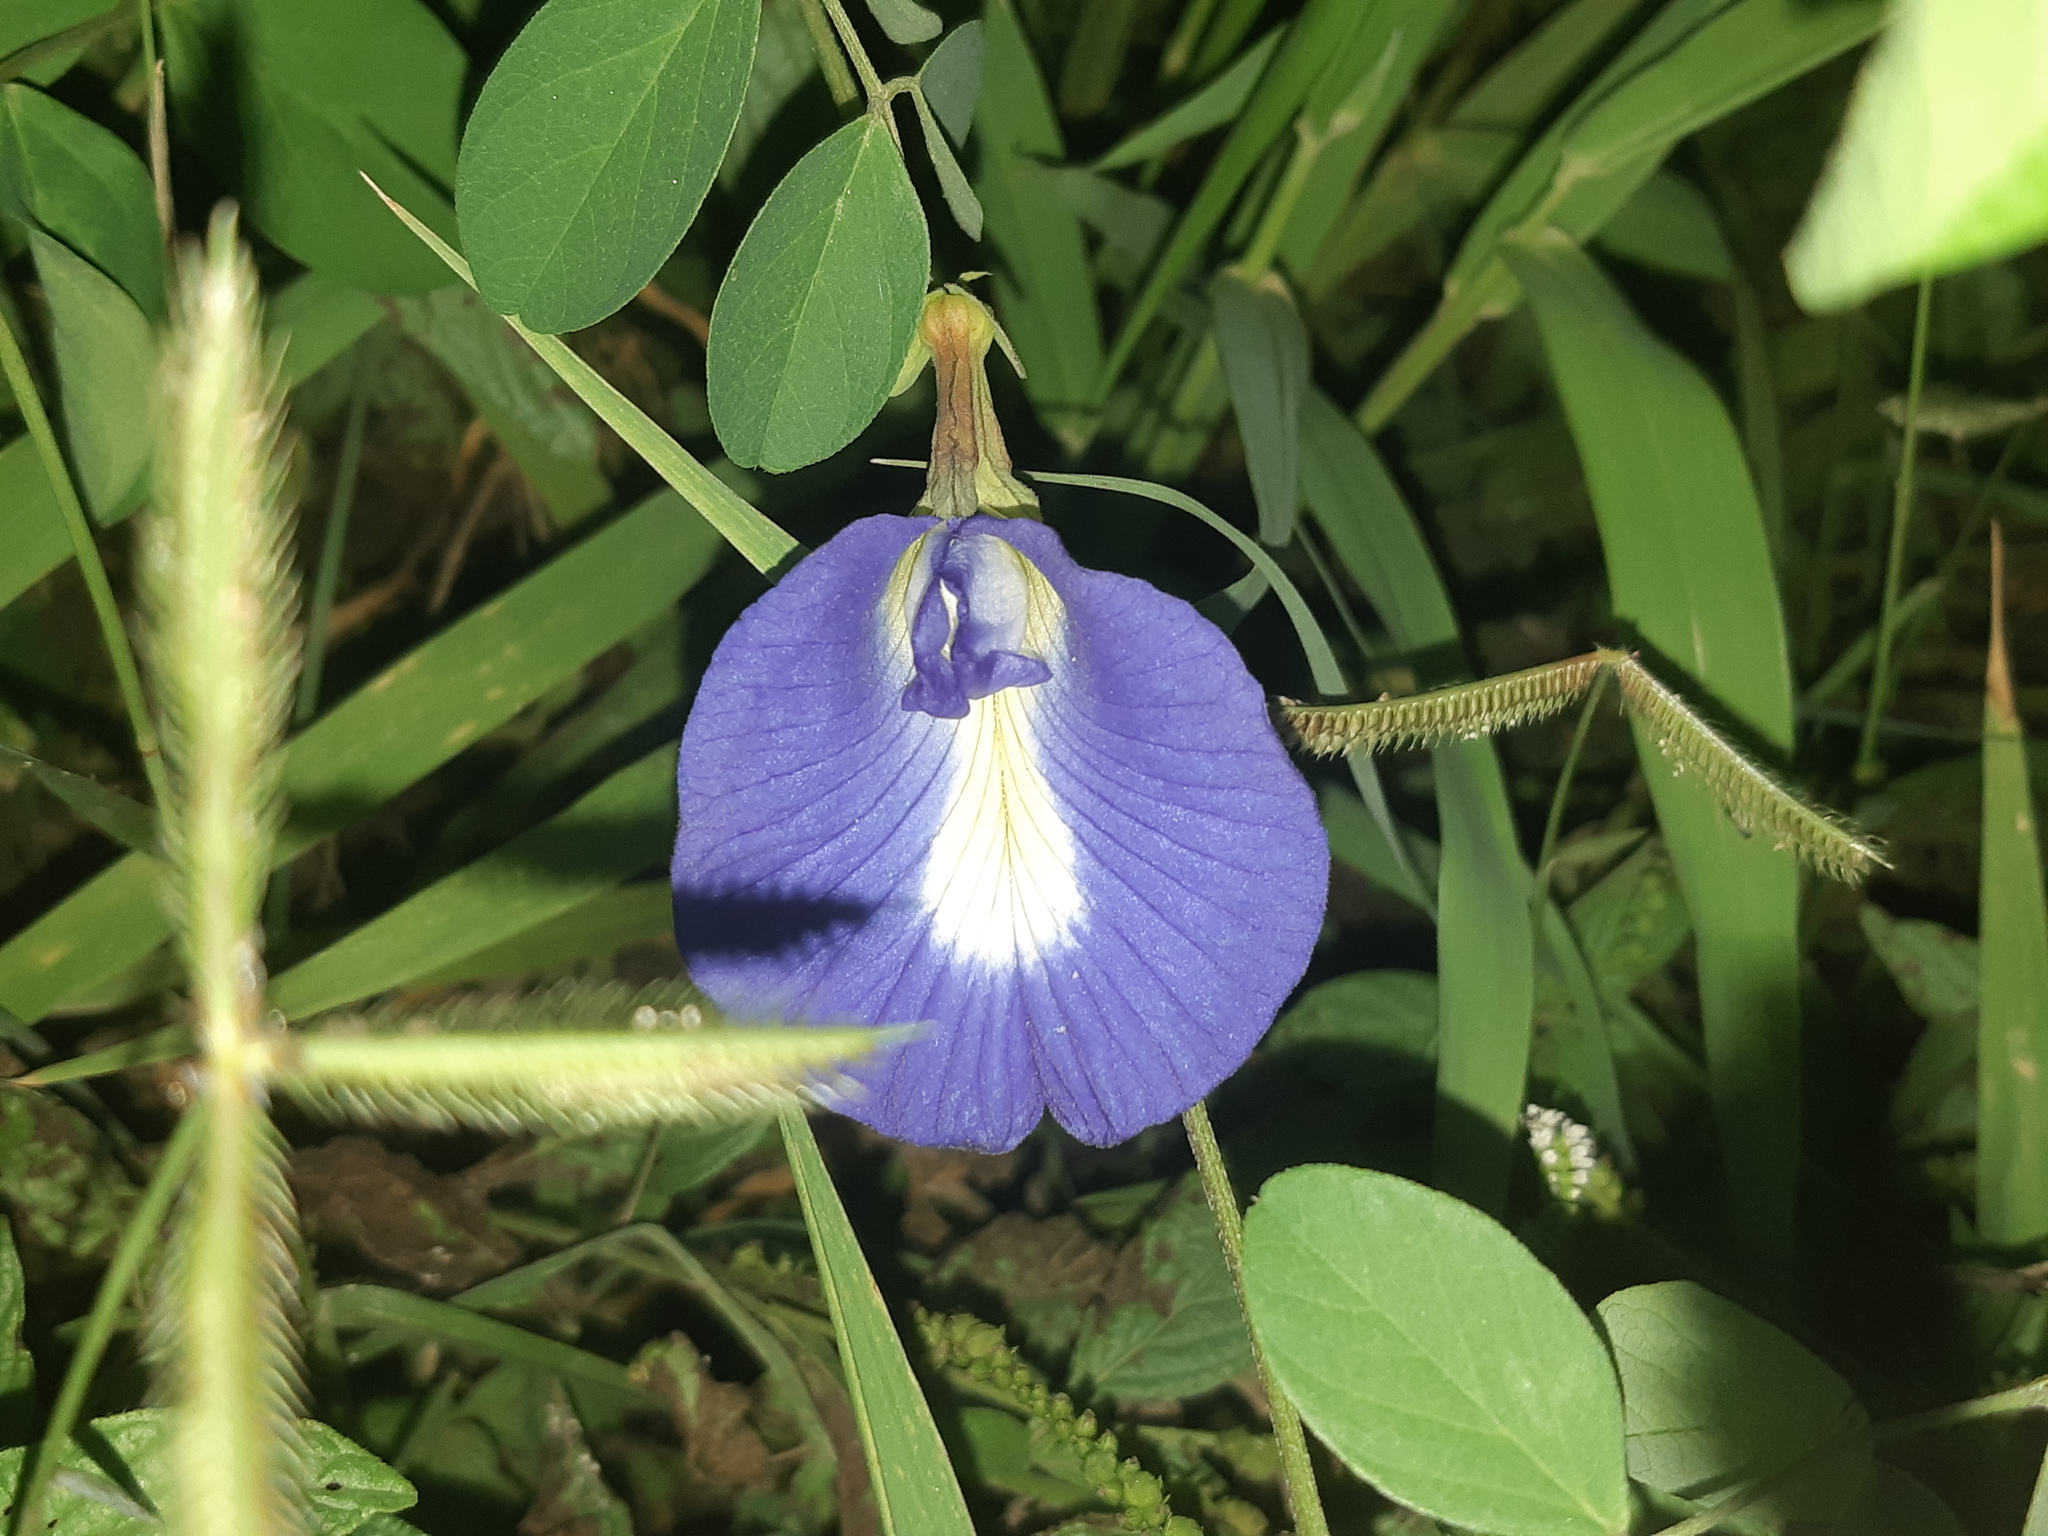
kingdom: Plantae
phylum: Tracheophyta
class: Magnoliopsida
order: Fabales
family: Fabaceae
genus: Clitoria
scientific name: Clitoria ternatea
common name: Asian pigeonwings
